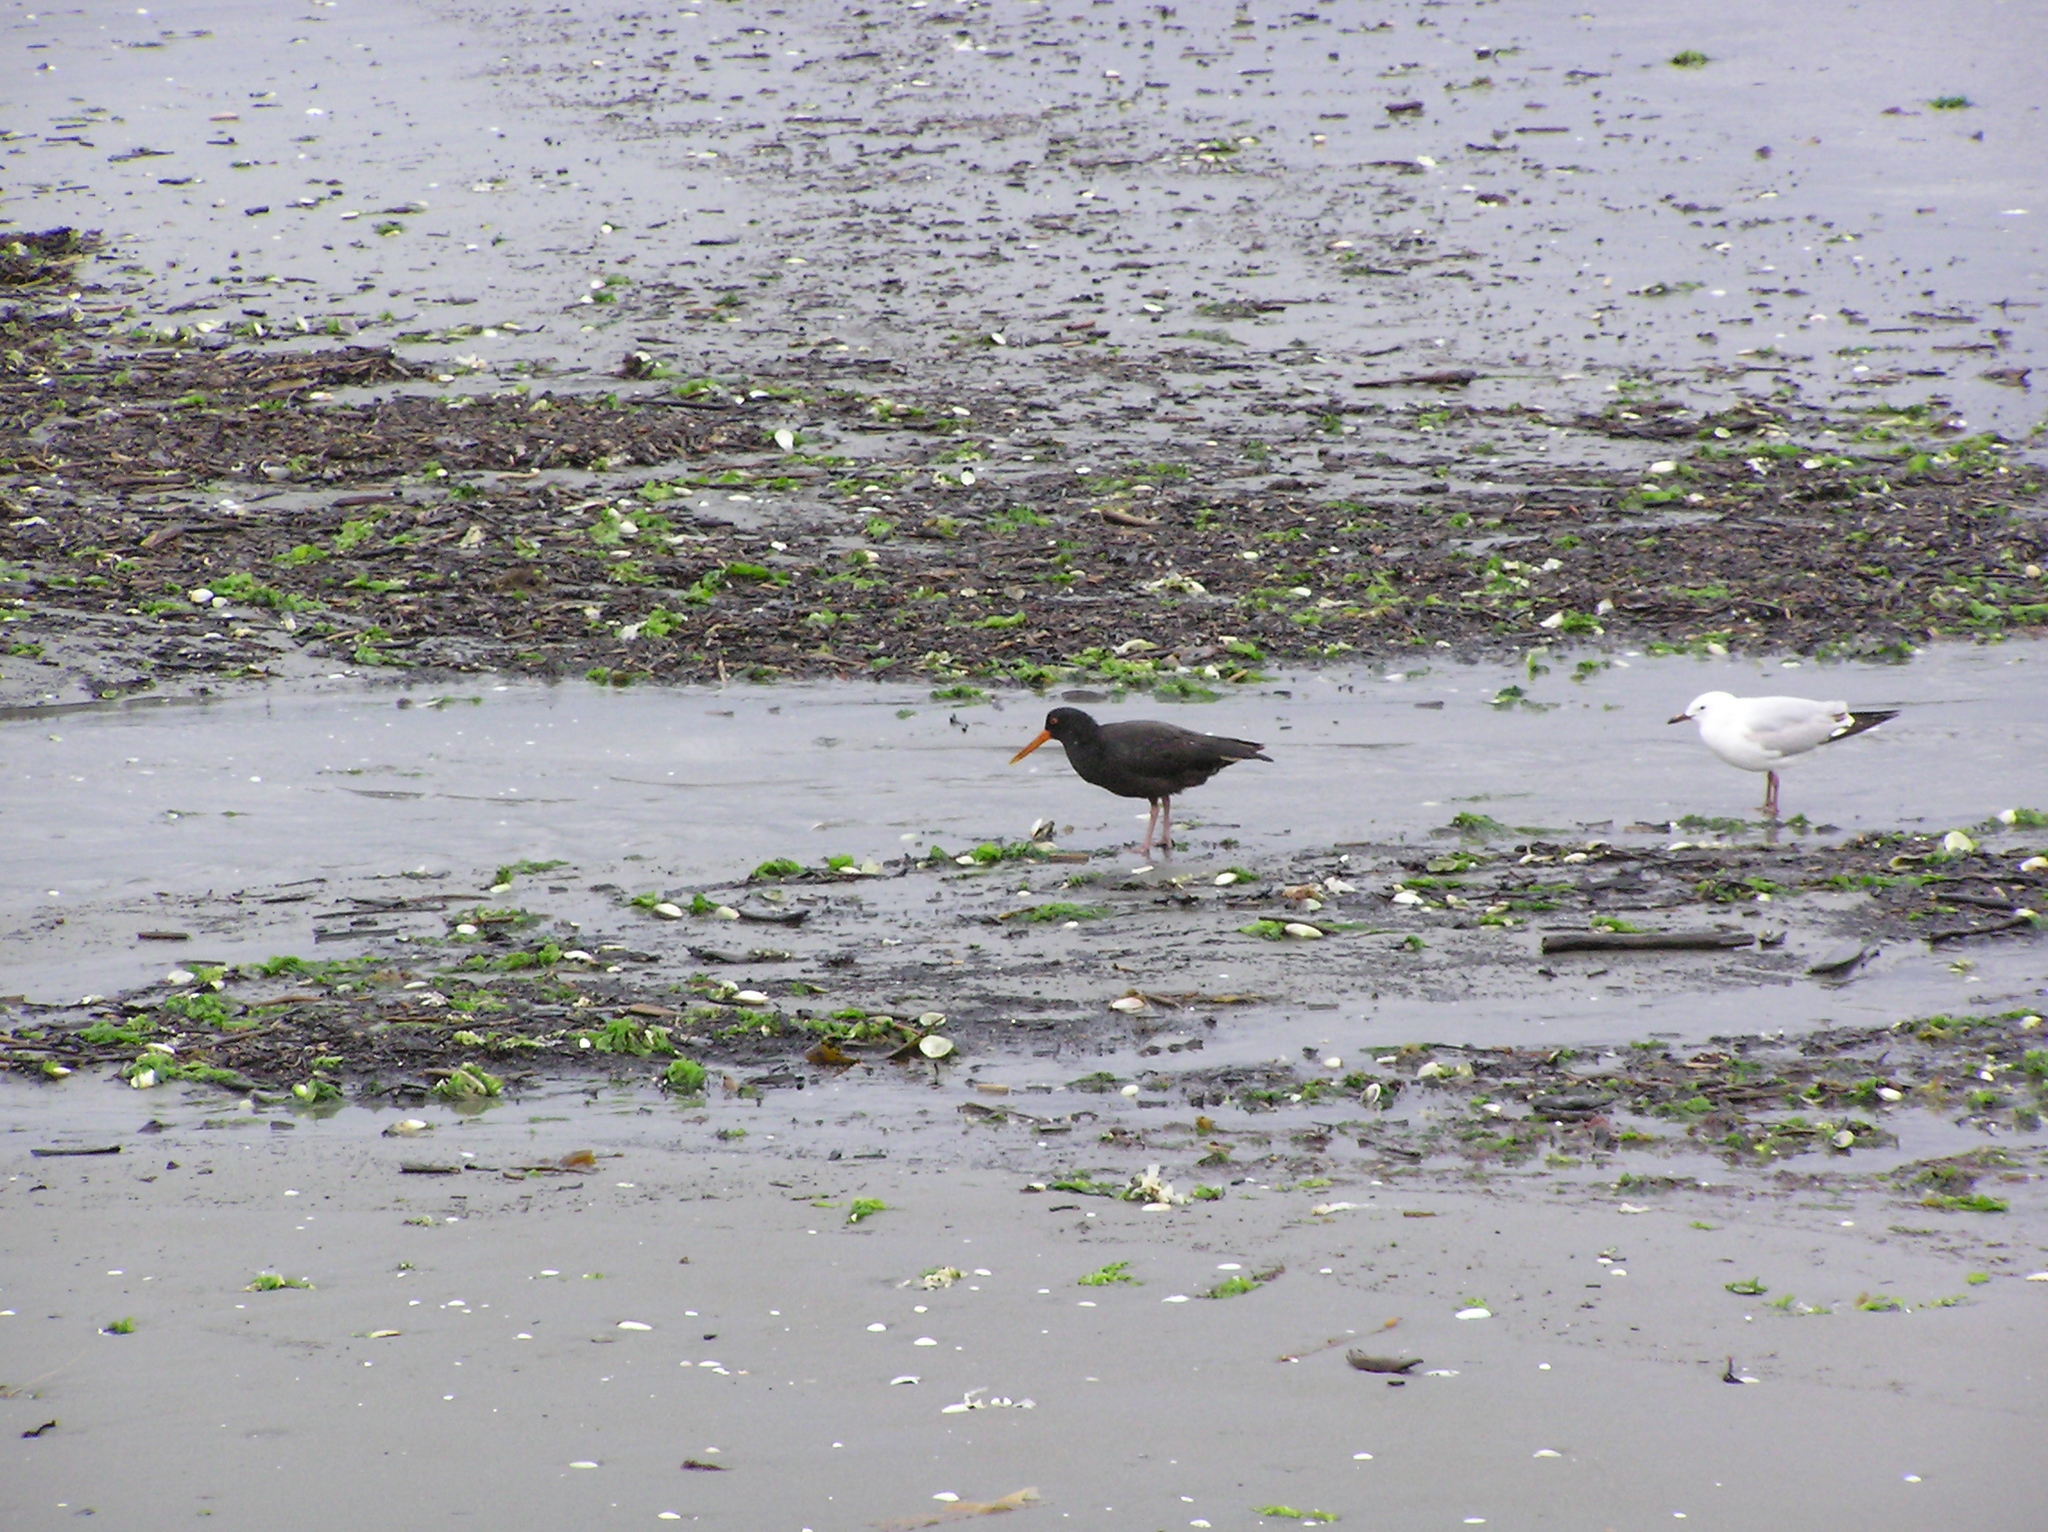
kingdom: Animalia
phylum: Chordata
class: Aves
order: Charadriiformes
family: Haematopodidae
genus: Haematopus
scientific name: Haematopus unicolor
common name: Variable oystercatcher
